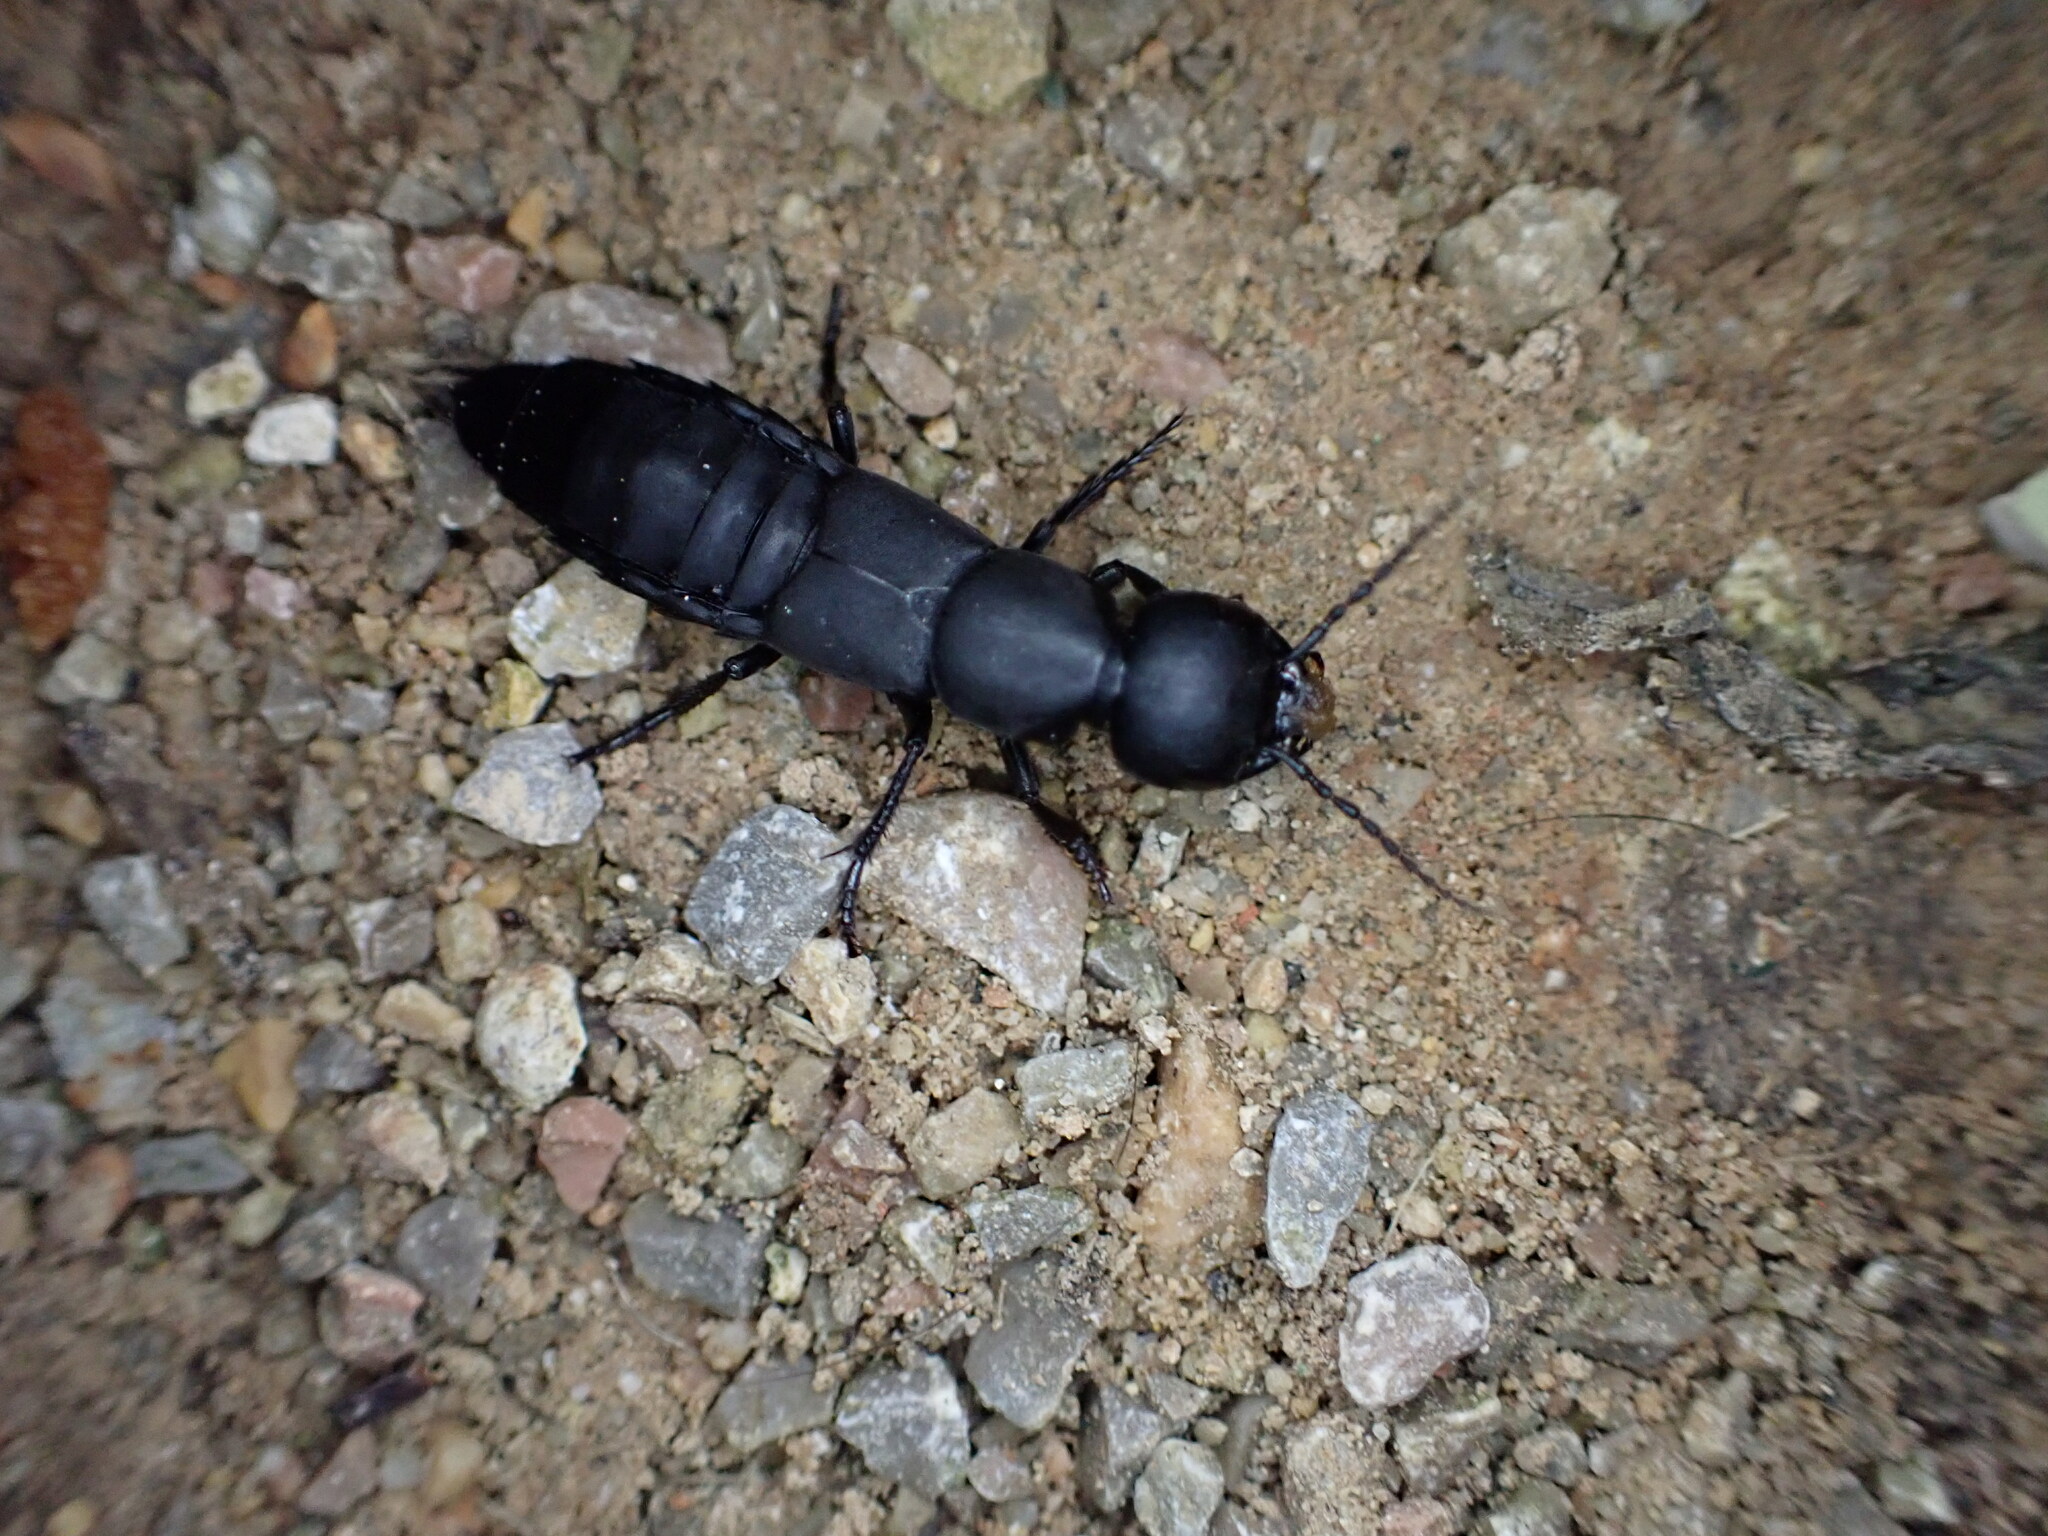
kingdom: Animalia
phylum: Arthropoda
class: Insecta
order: Coleoptera
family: Staphylinidae
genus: Ocypus
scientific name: Ocypus ophthalmicus
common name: Blue rove-beetle
